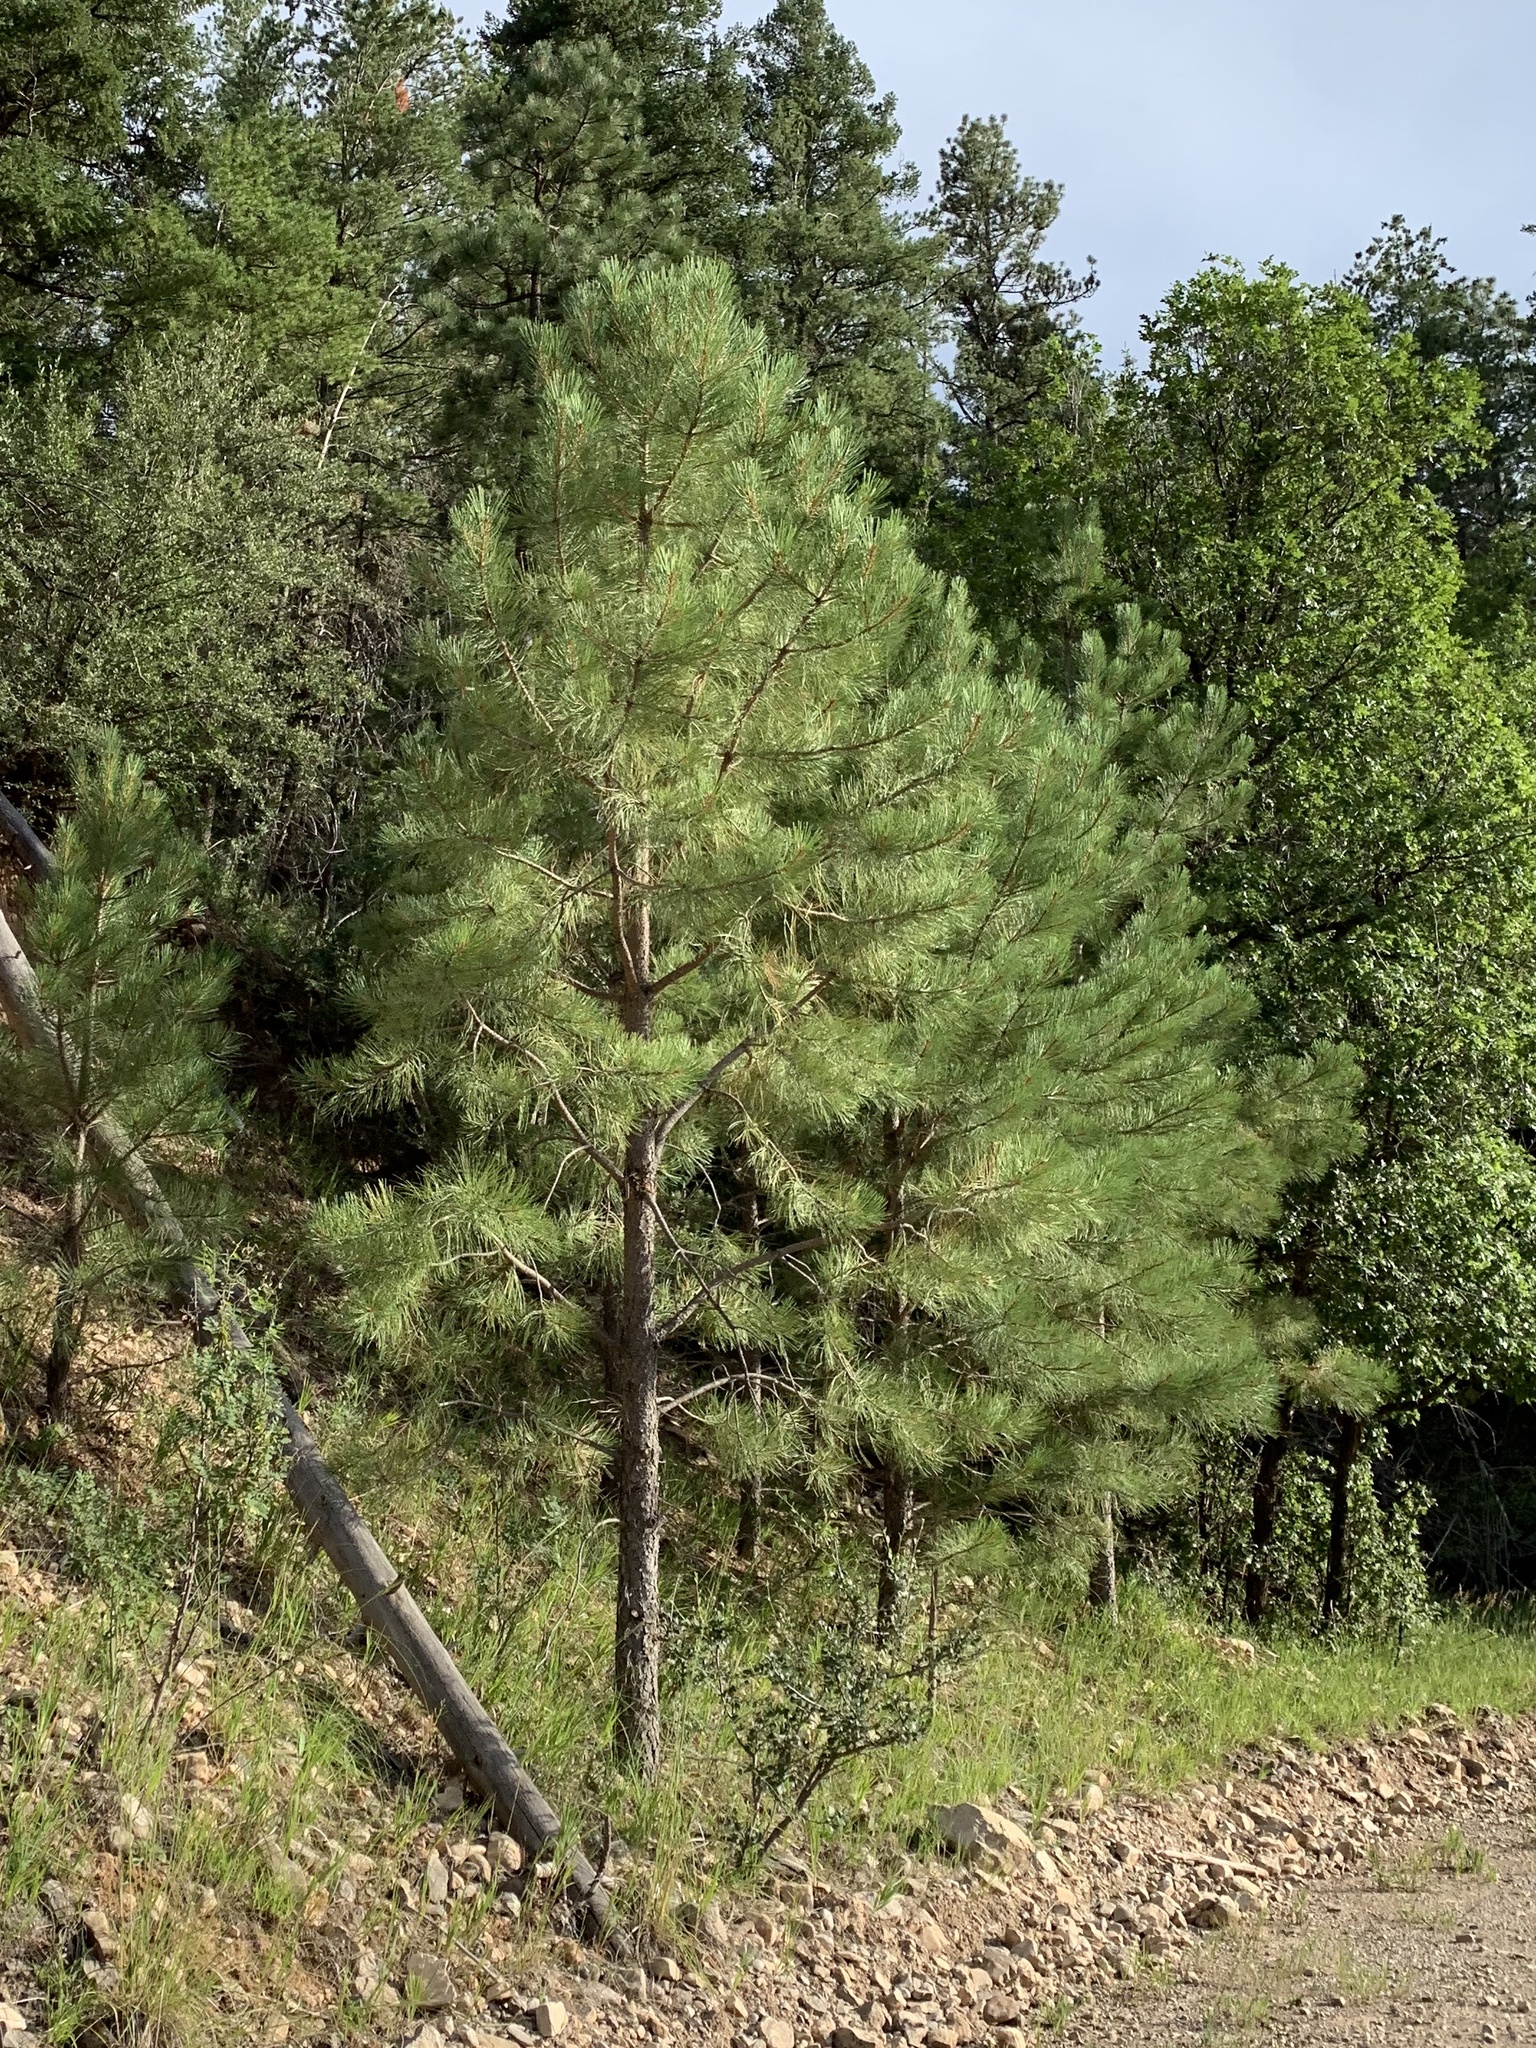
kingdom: Plantae
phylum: Tracheophyta
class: Pinopsida
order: Pinales
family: Pinaceae
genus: Pinus
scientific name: Pinus ponderosa
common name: Western yellow-pine
